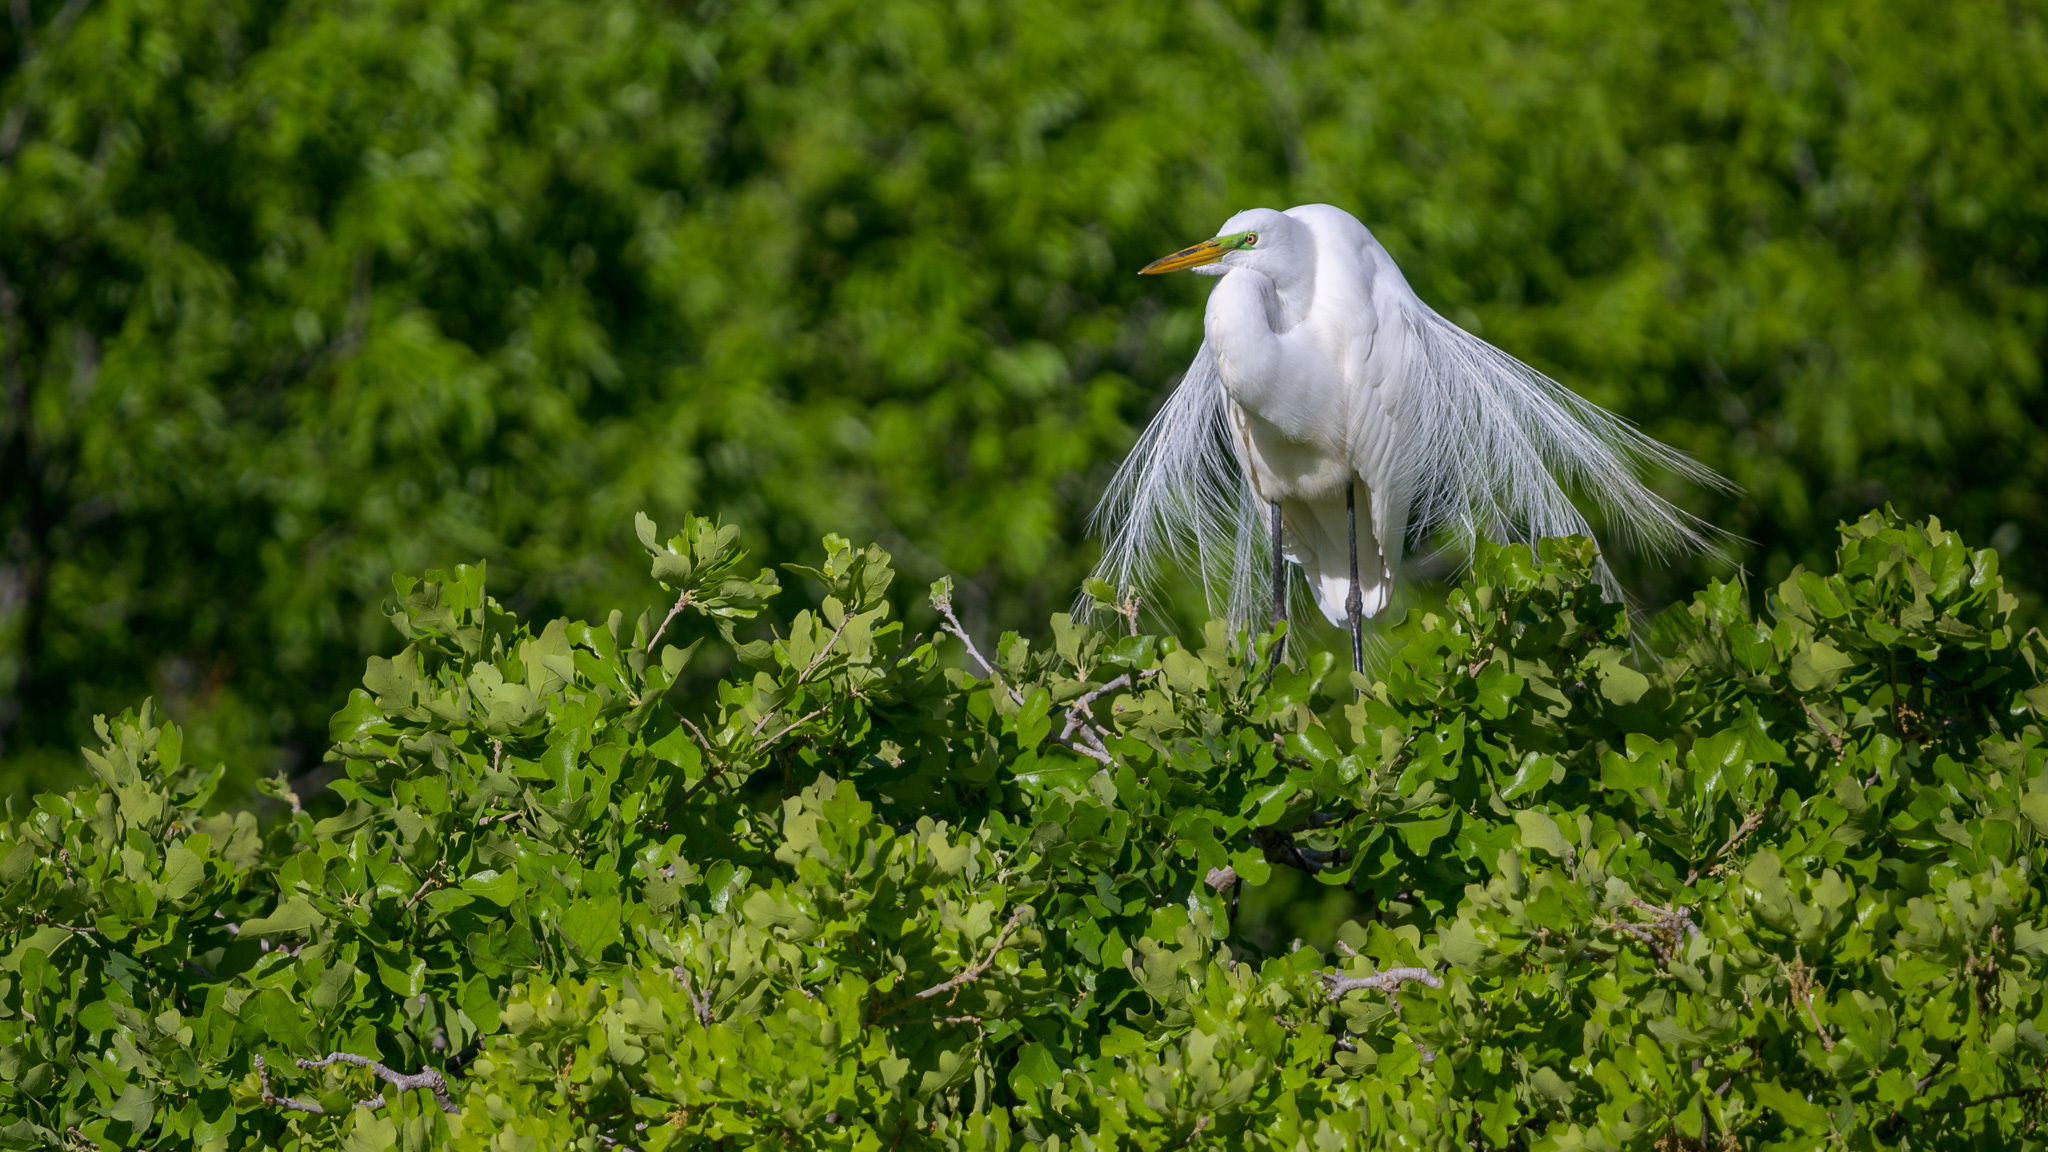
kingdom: Animalia
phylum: Chordata
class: Aves
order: Pelecaniformes
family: Ardeidae
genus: Ardea
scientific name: Ardea alba
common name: Great egret
